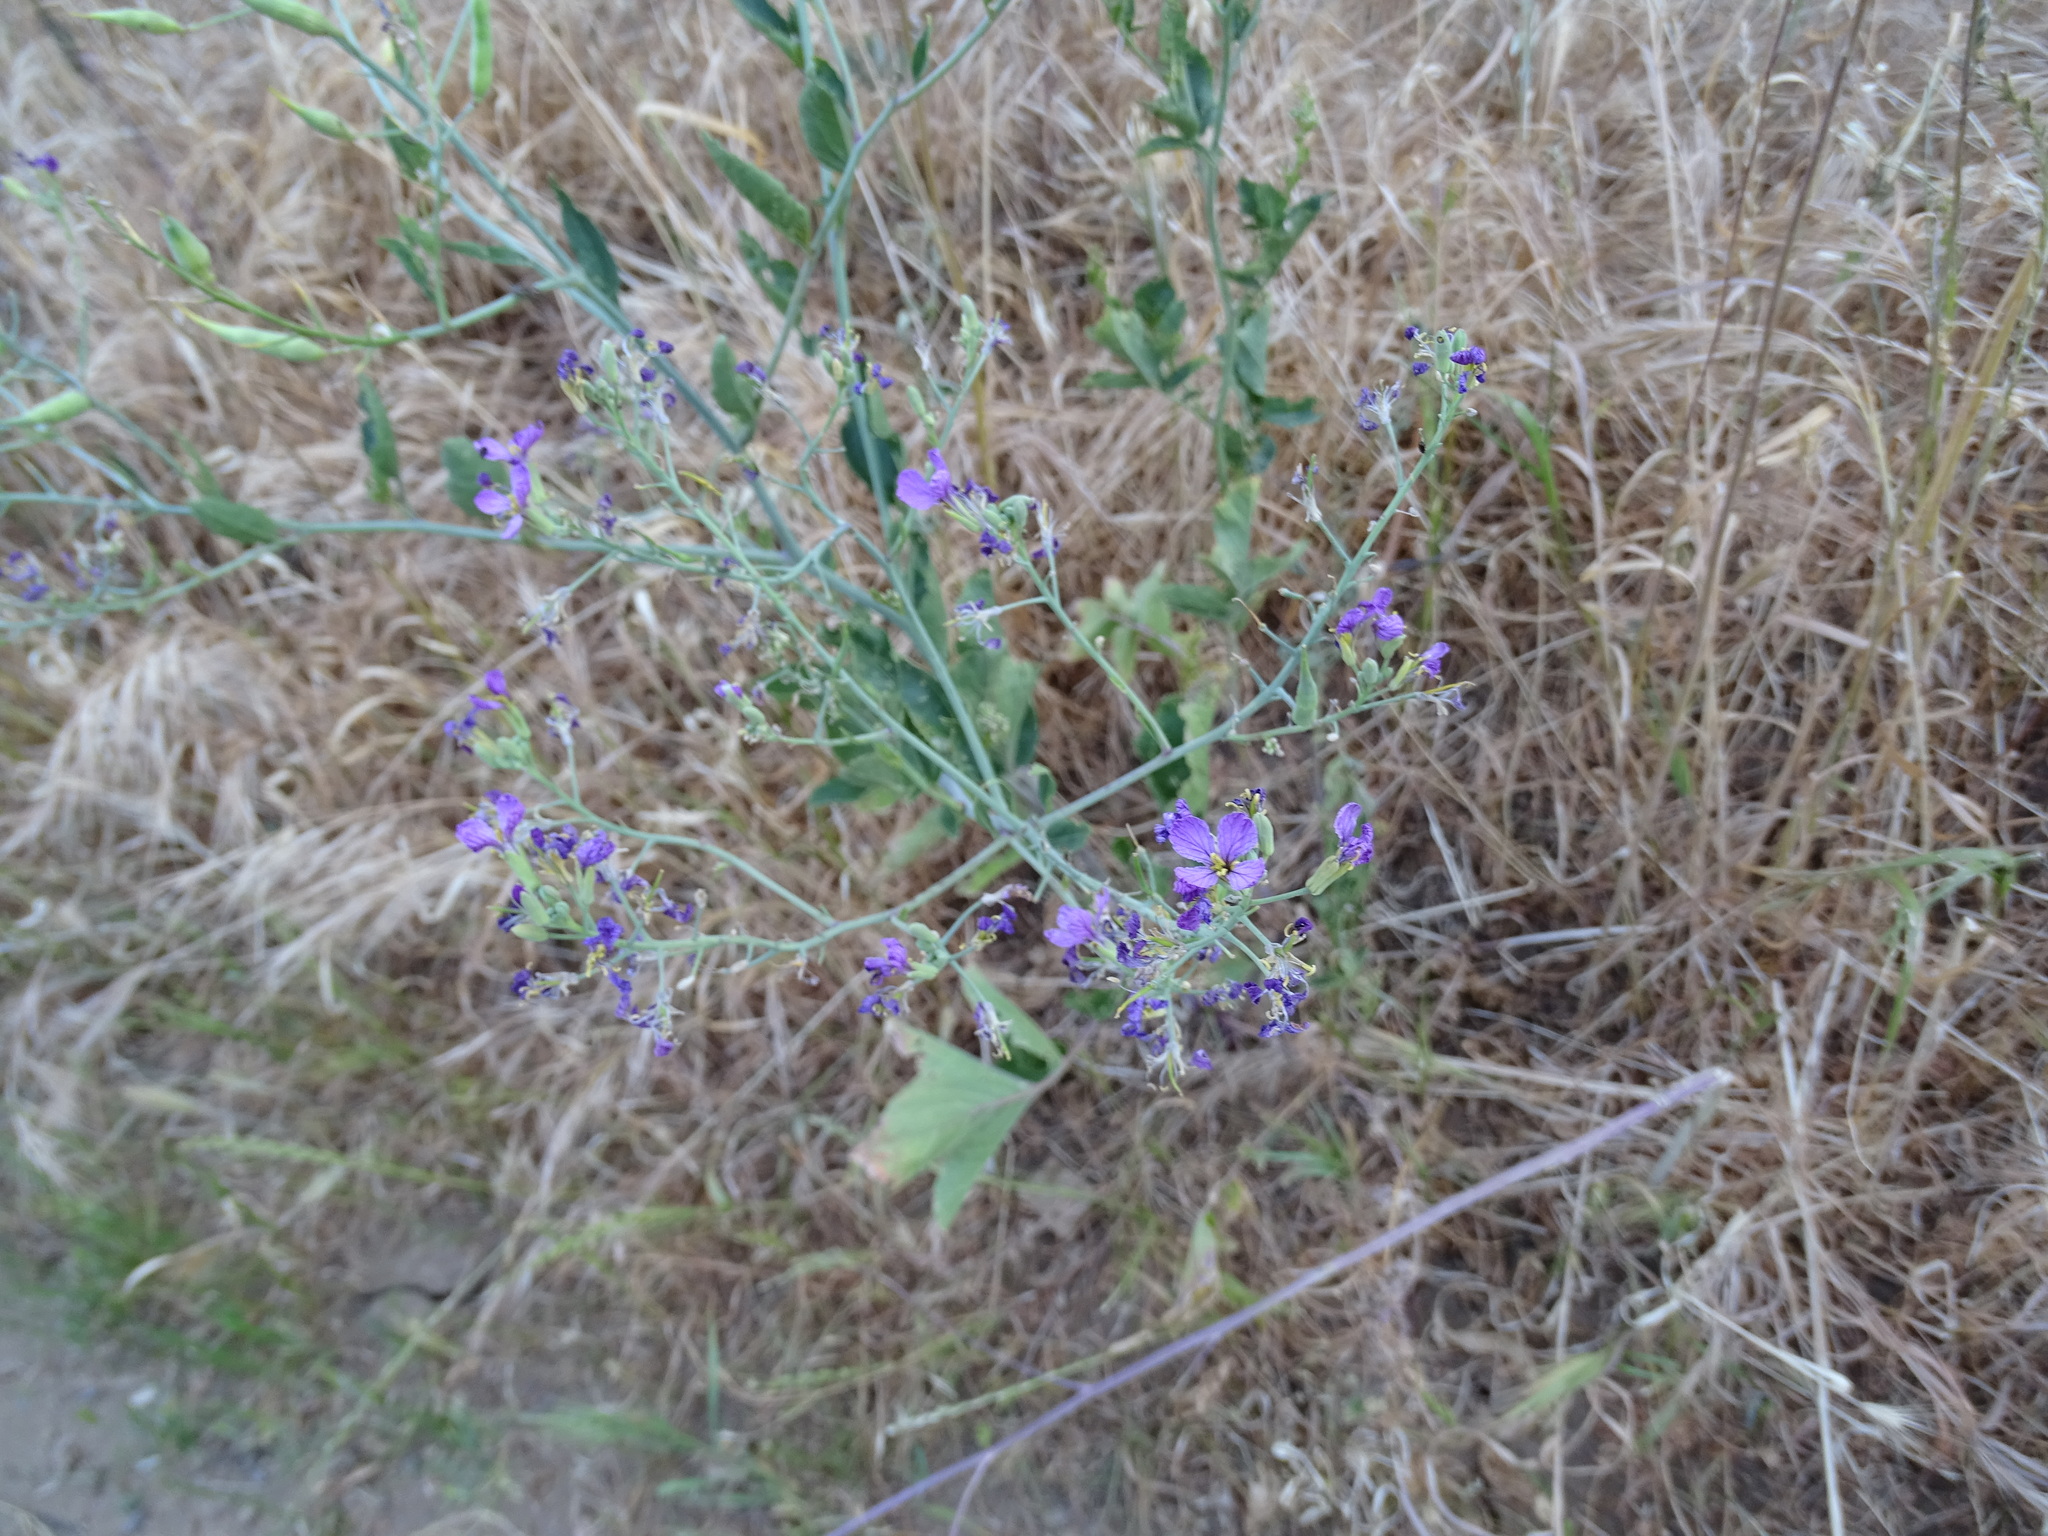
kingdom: Plantae
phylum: Tracheophyta
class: Magnoliopsida
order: Brassicales
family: Brassicaceae
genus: Raphanus
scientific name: Raphanus sativus
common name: Cultivated radish
